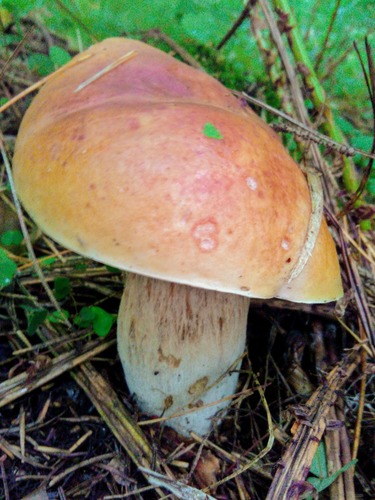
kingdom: Fungi
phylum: Basidiomycota
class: Agaricomycetes
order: Boletales
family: Boletaceae
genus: Boletus
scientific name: Boletus edulis
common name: Cep
